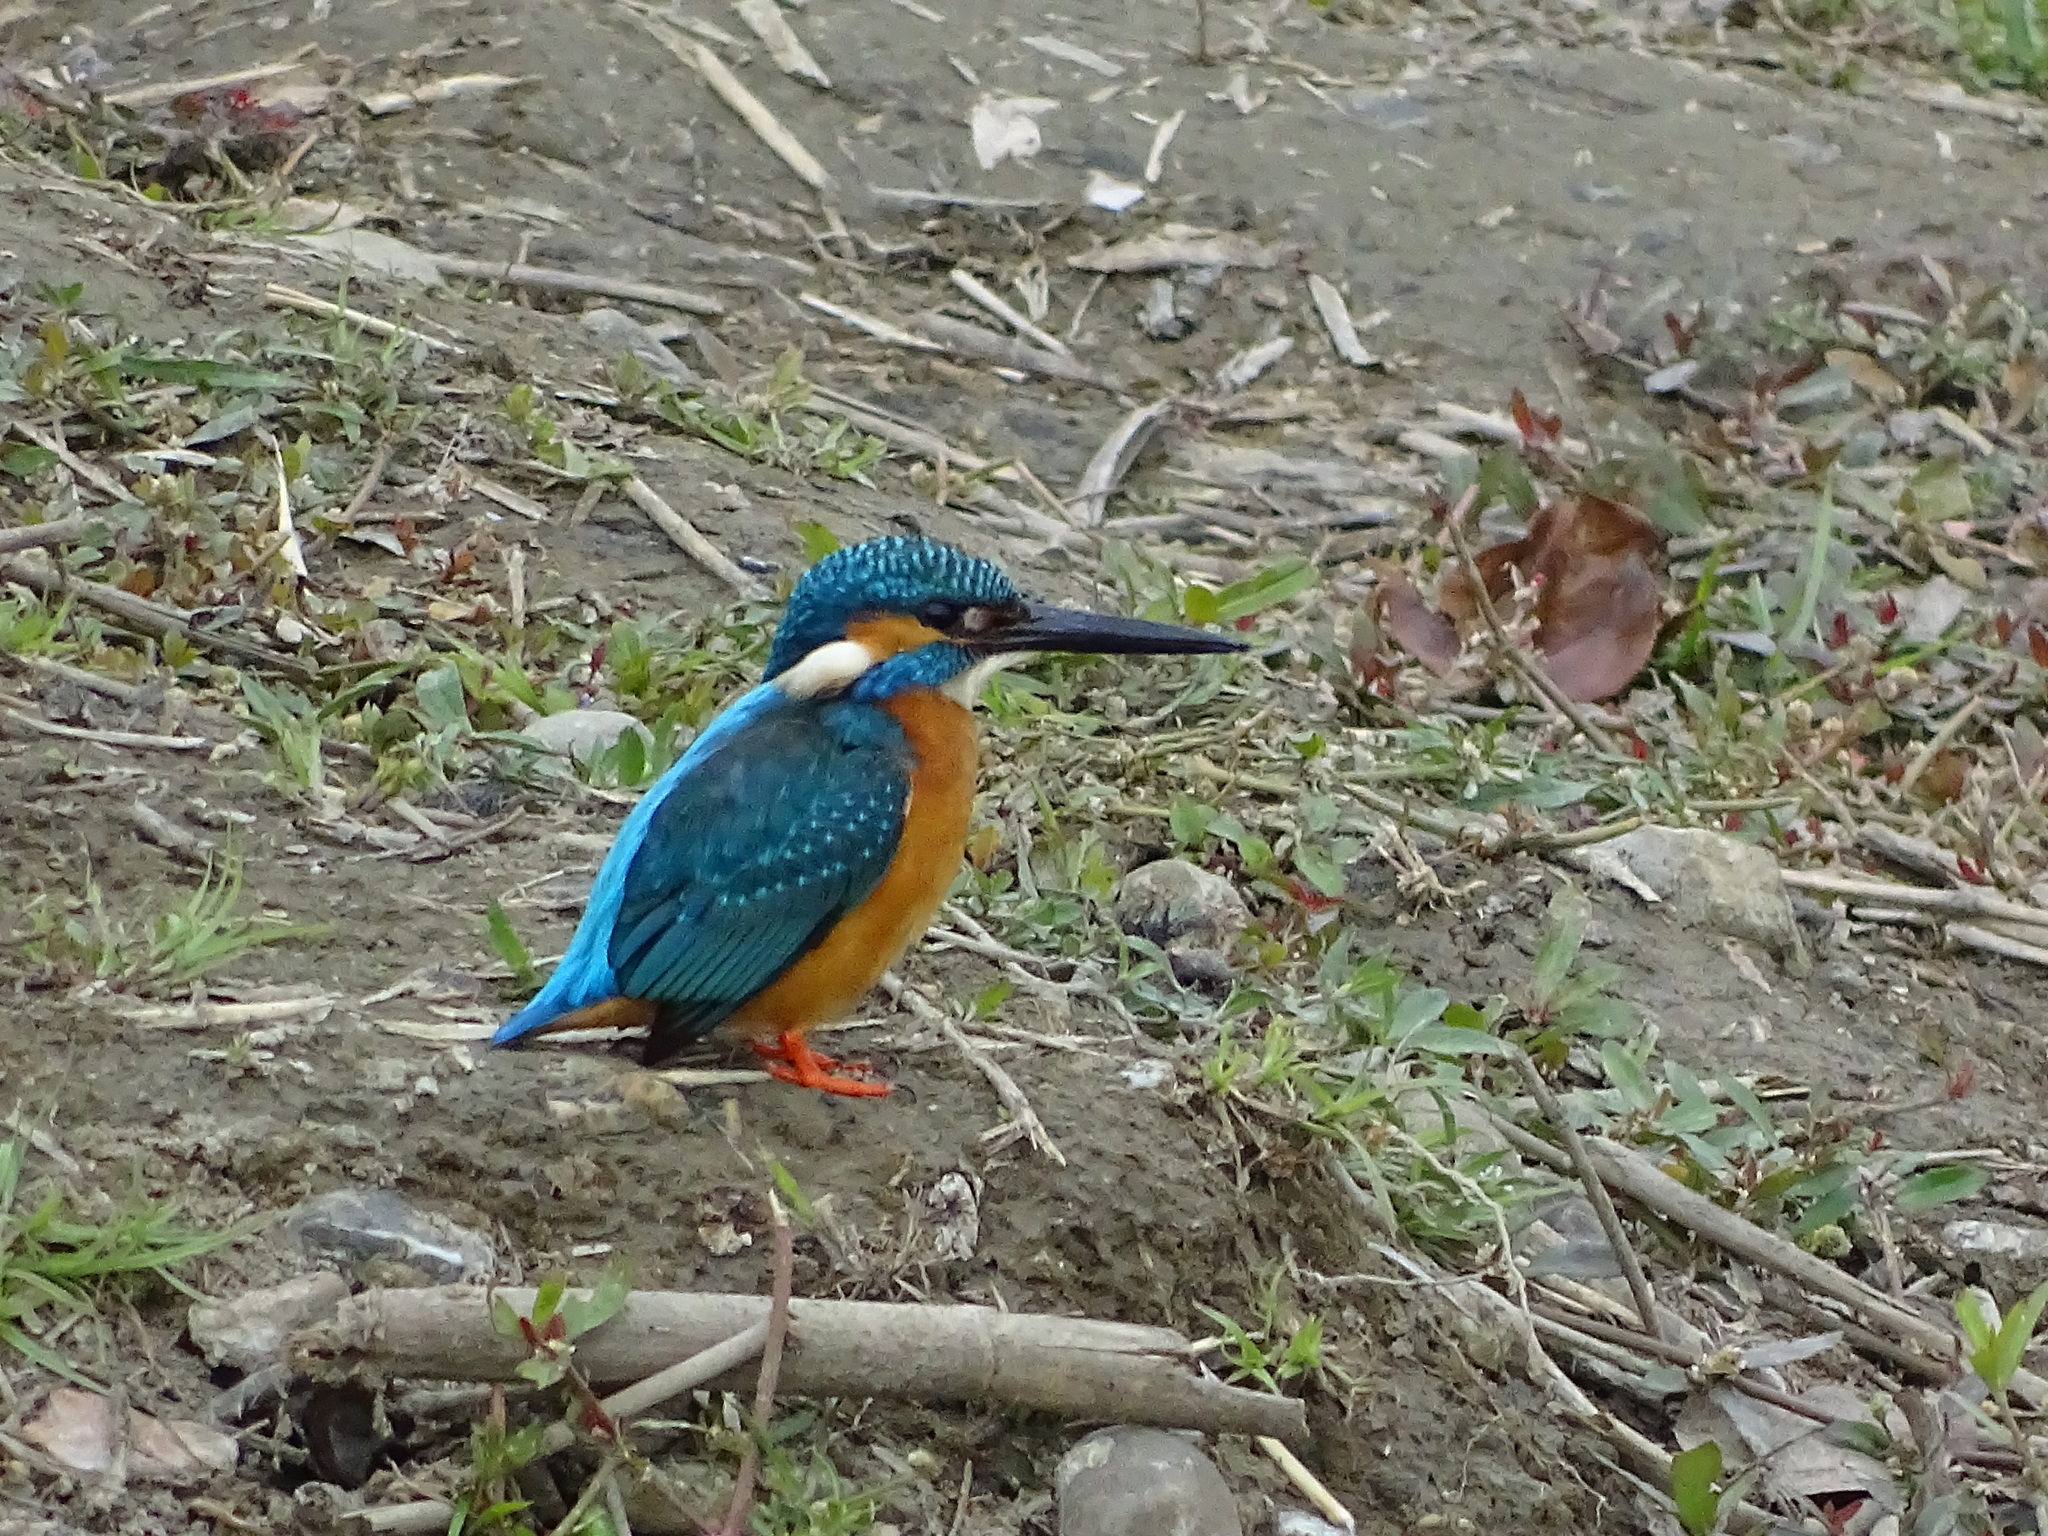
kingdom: Animalia
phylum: Chordata
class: Aves
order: Coraciiformes
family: Alcedinidae
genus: Alcedo
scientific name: Alcedo atthis
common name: Common kingfisher
